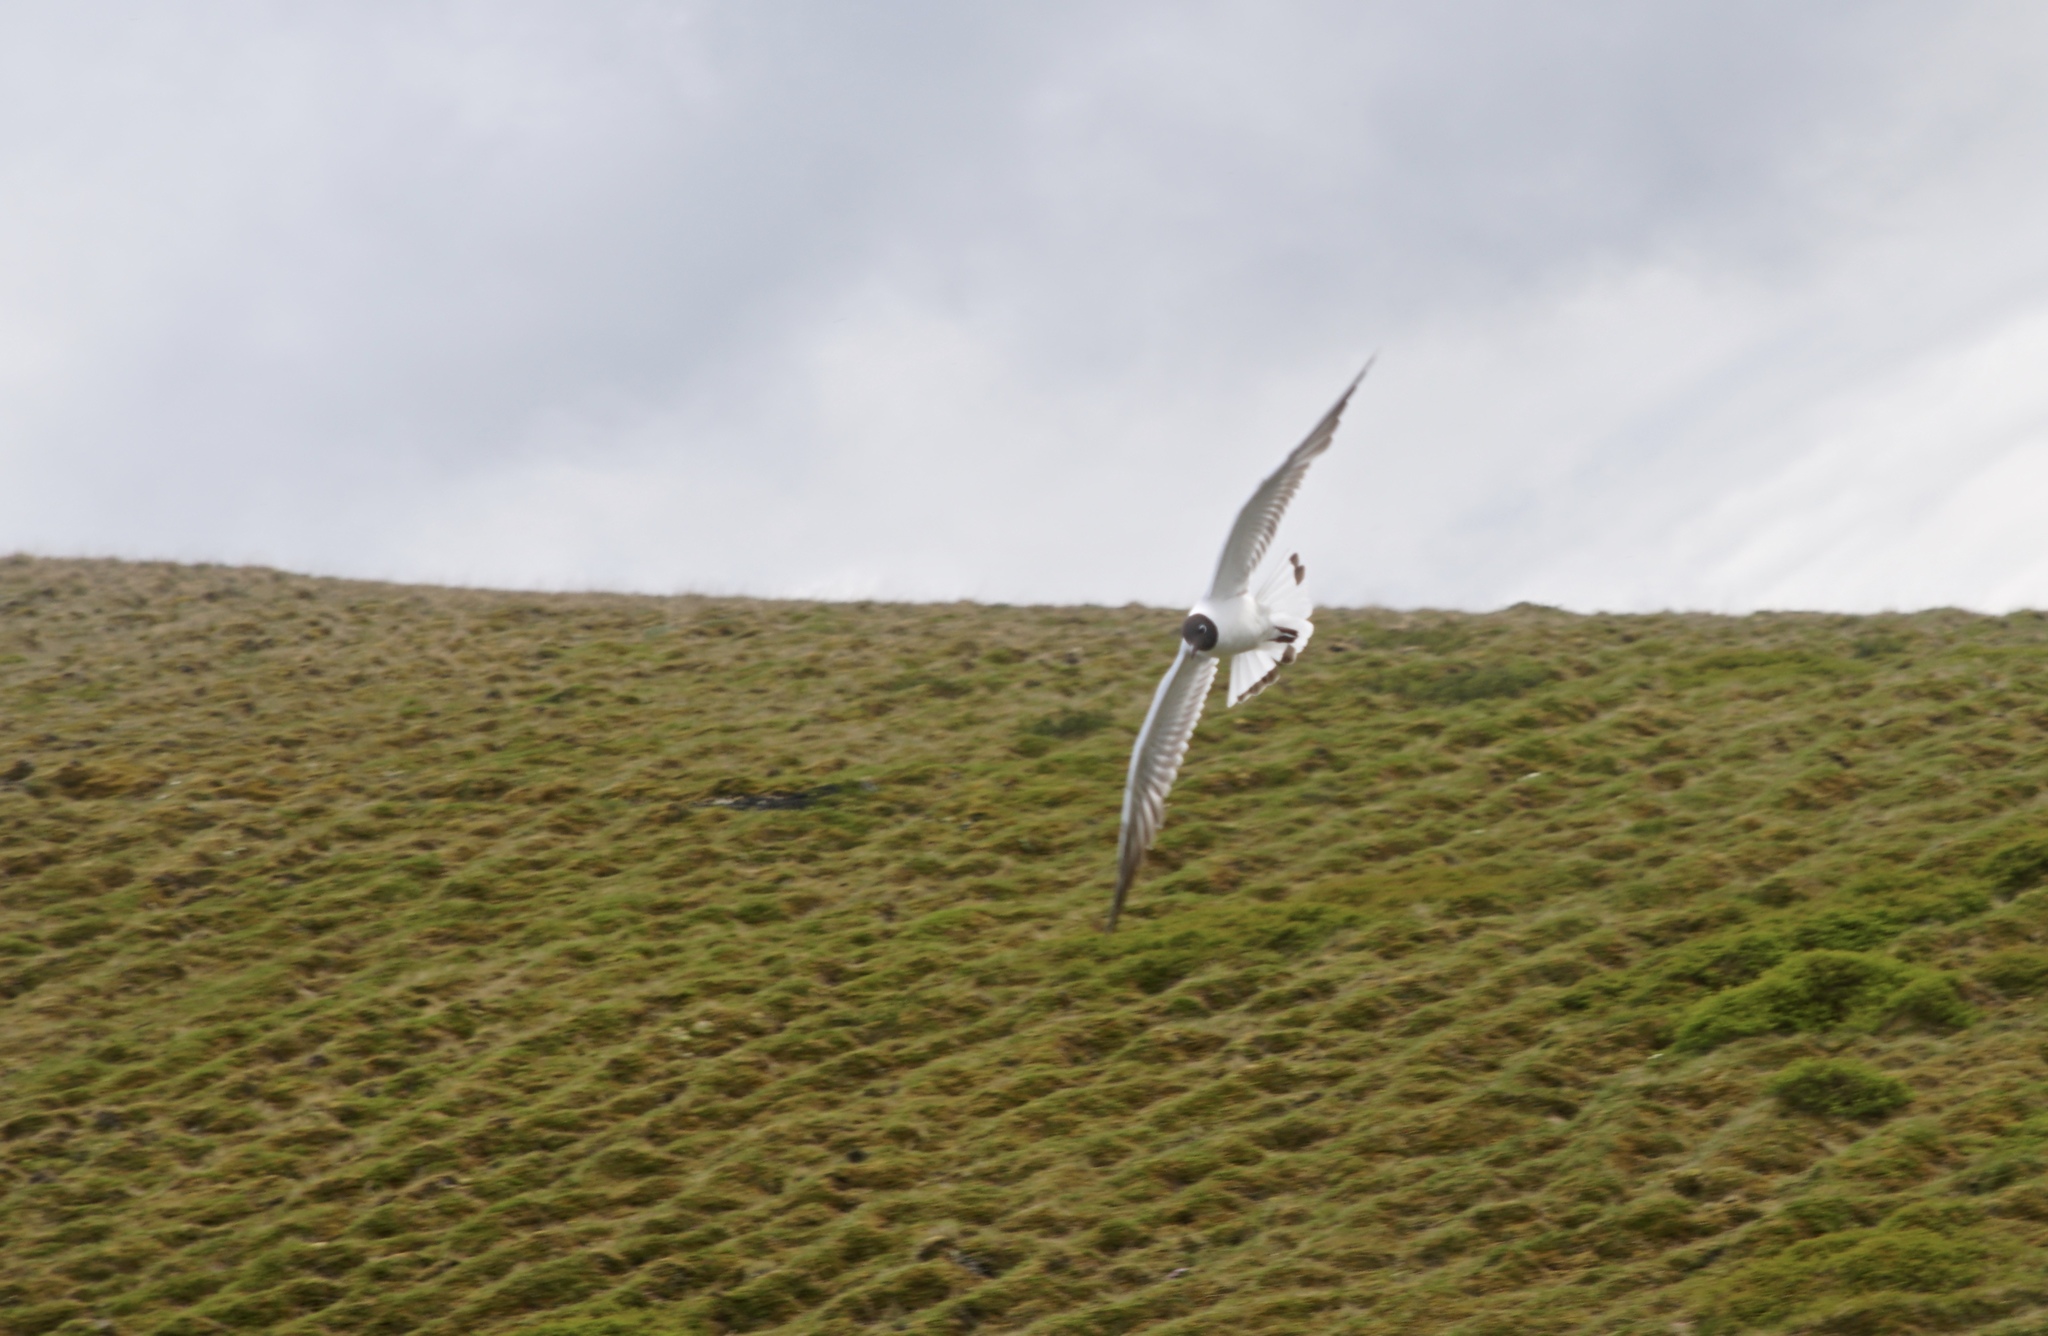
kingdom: Animalia
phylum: Chordata
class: Aves
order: Charadriiformes
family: Laridae
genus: Chroicocephalus
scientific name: Chroicocephalus ridibundus
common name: Black-headed gull
